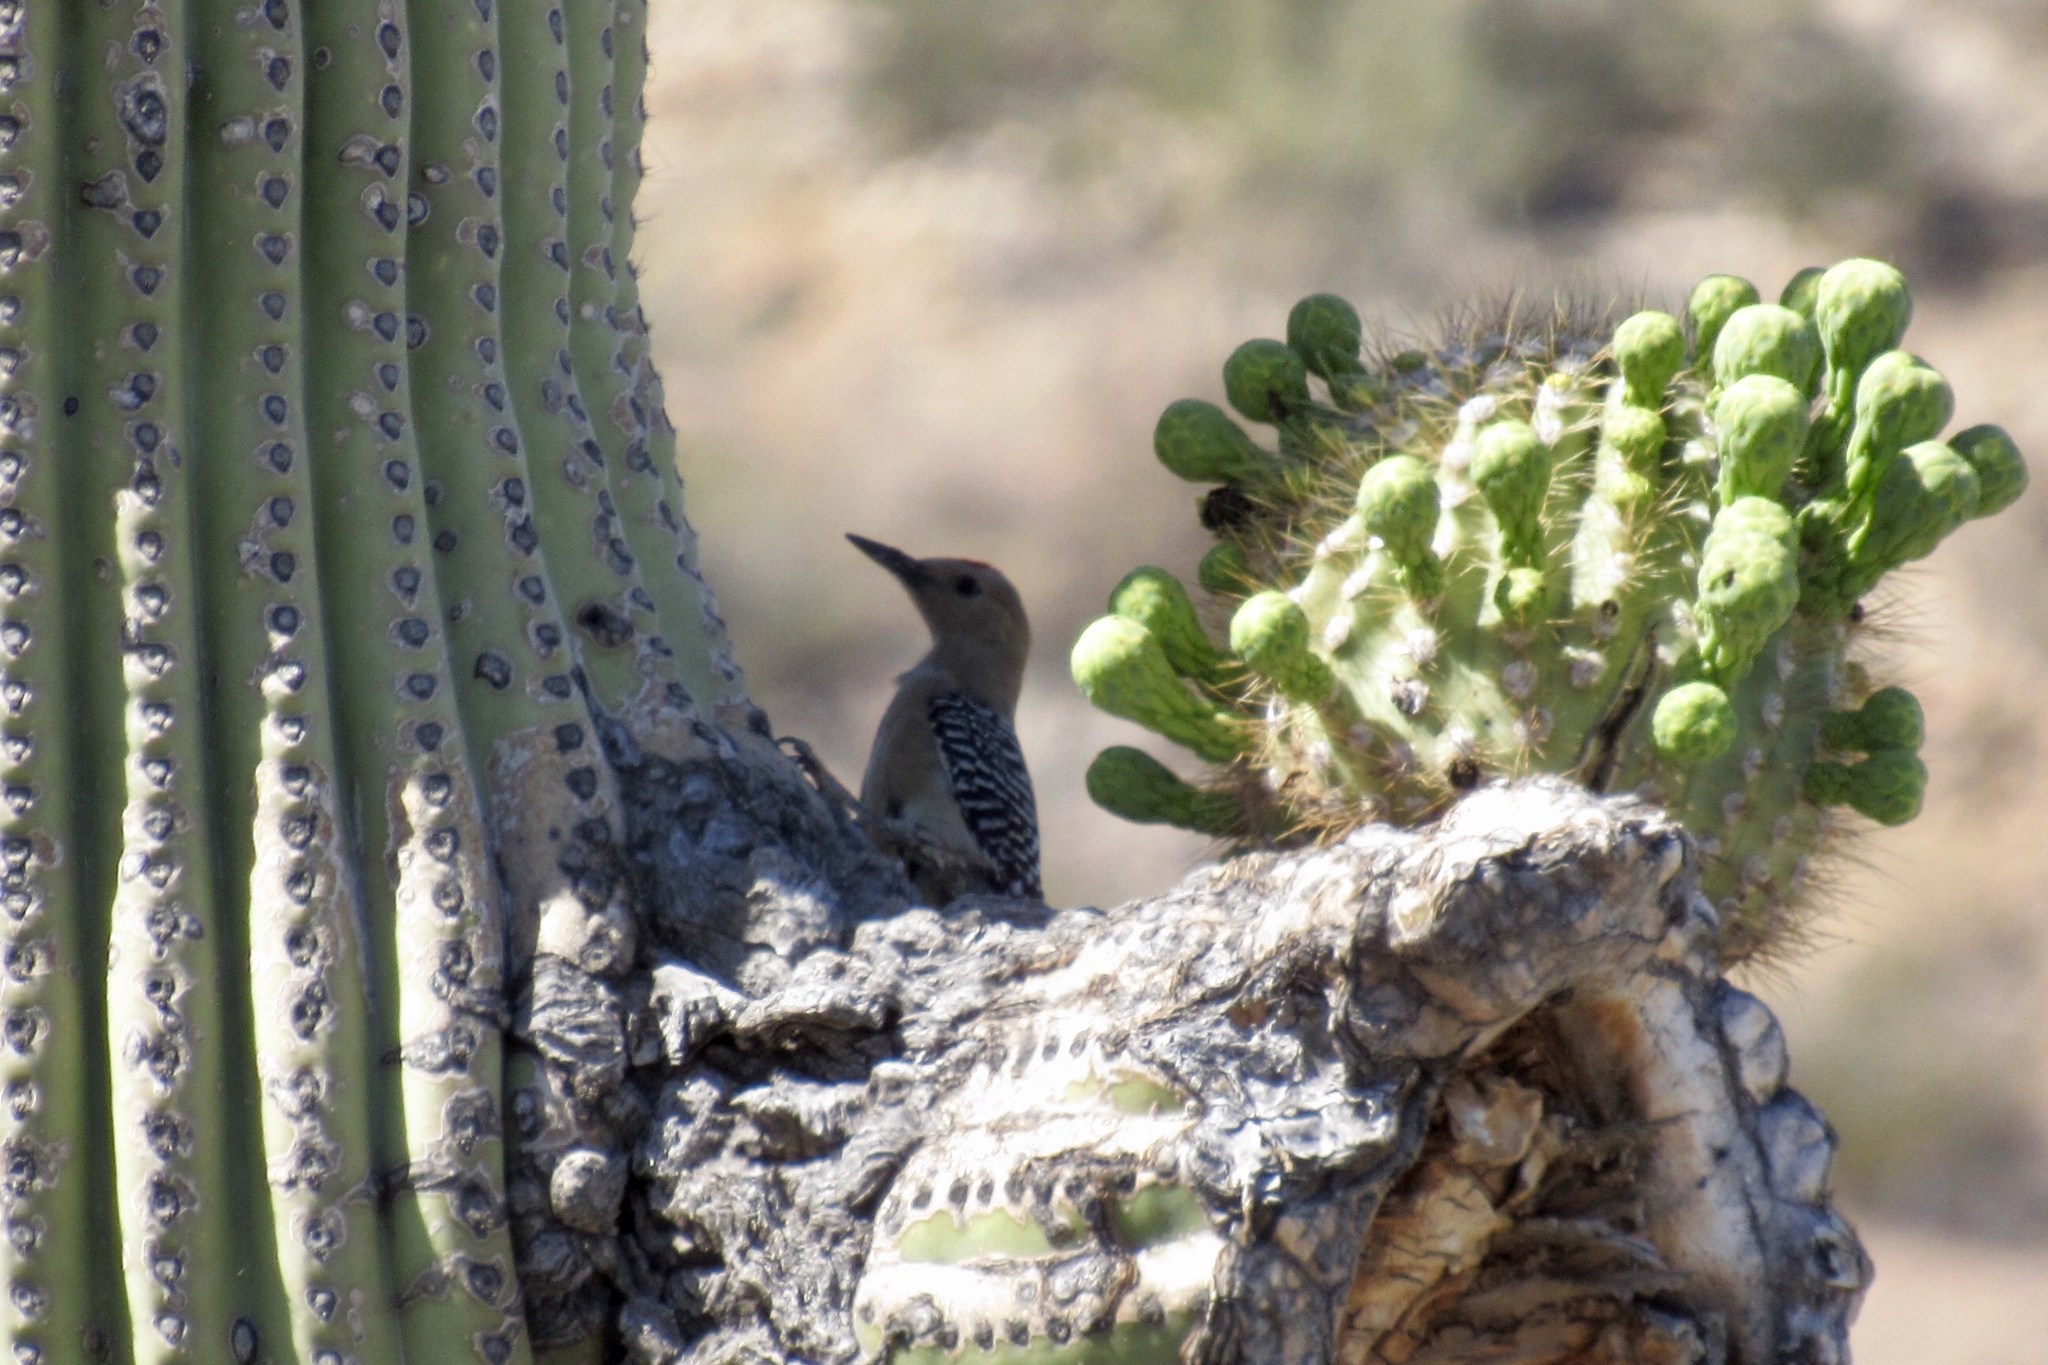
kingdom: Animalia
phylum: Chordata
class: Aves
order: Piciformes
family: Picidae
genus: Melanerpes
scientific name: Melanerpes uropygialis
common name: Gila woodpecker
